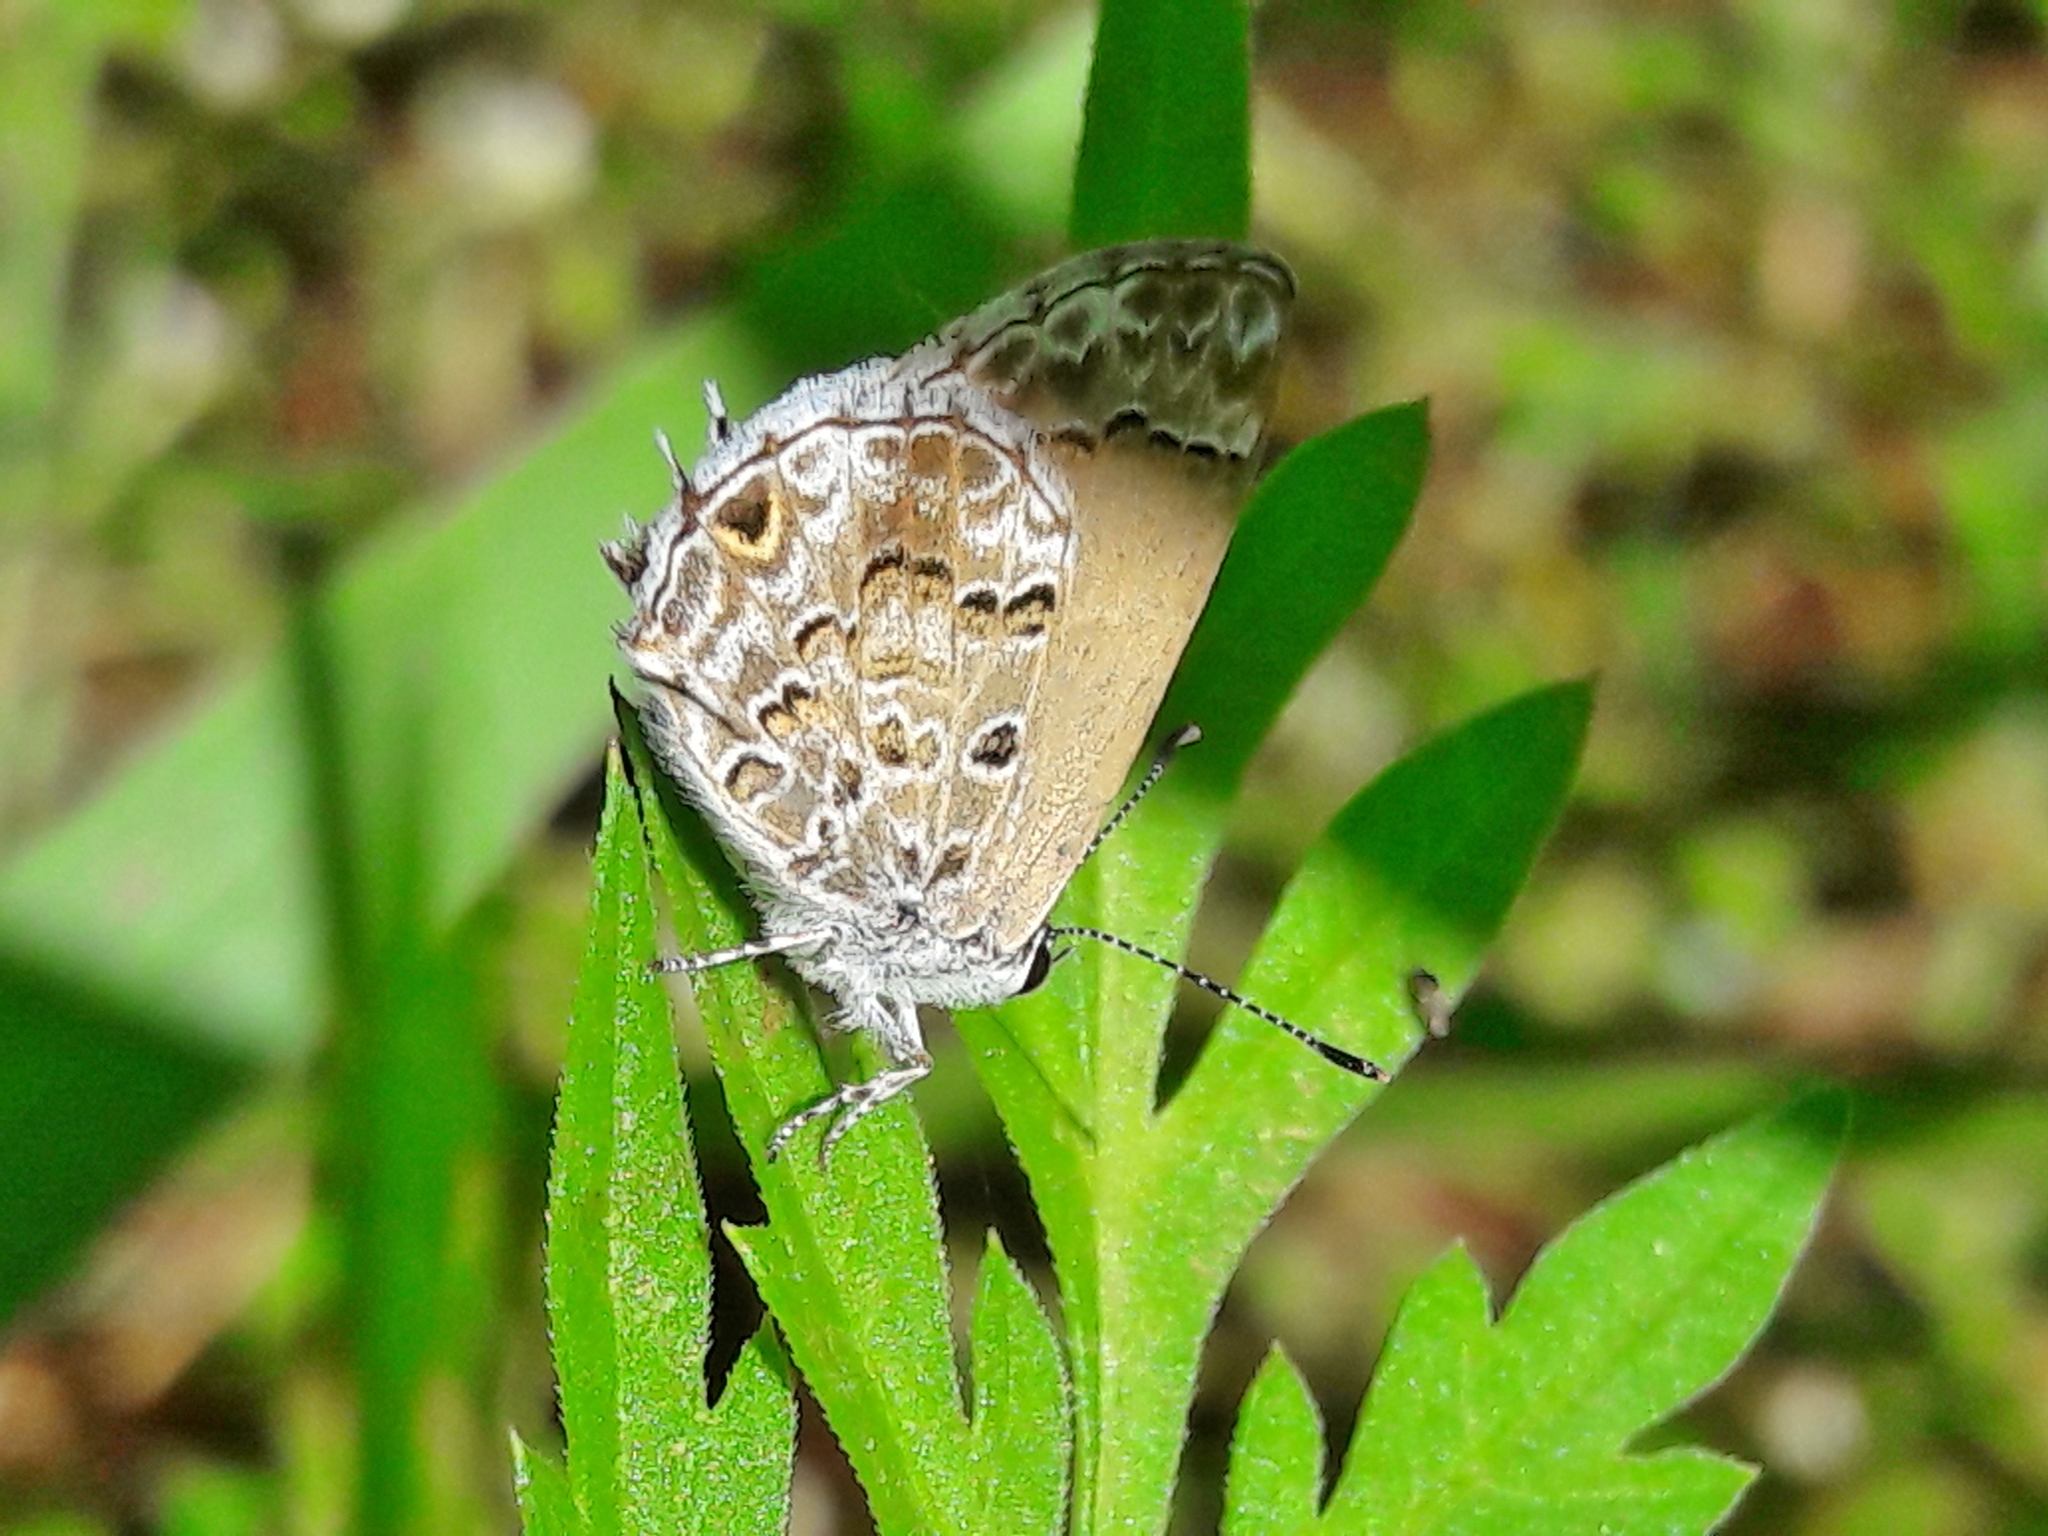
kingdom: Animalia
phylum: Arthropoda
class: Insecta
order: Lepidoptera
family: Lycaenidae
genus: Strymon
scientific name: Strymon astiocha
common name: Gray-spotted scrub-hairstreak
